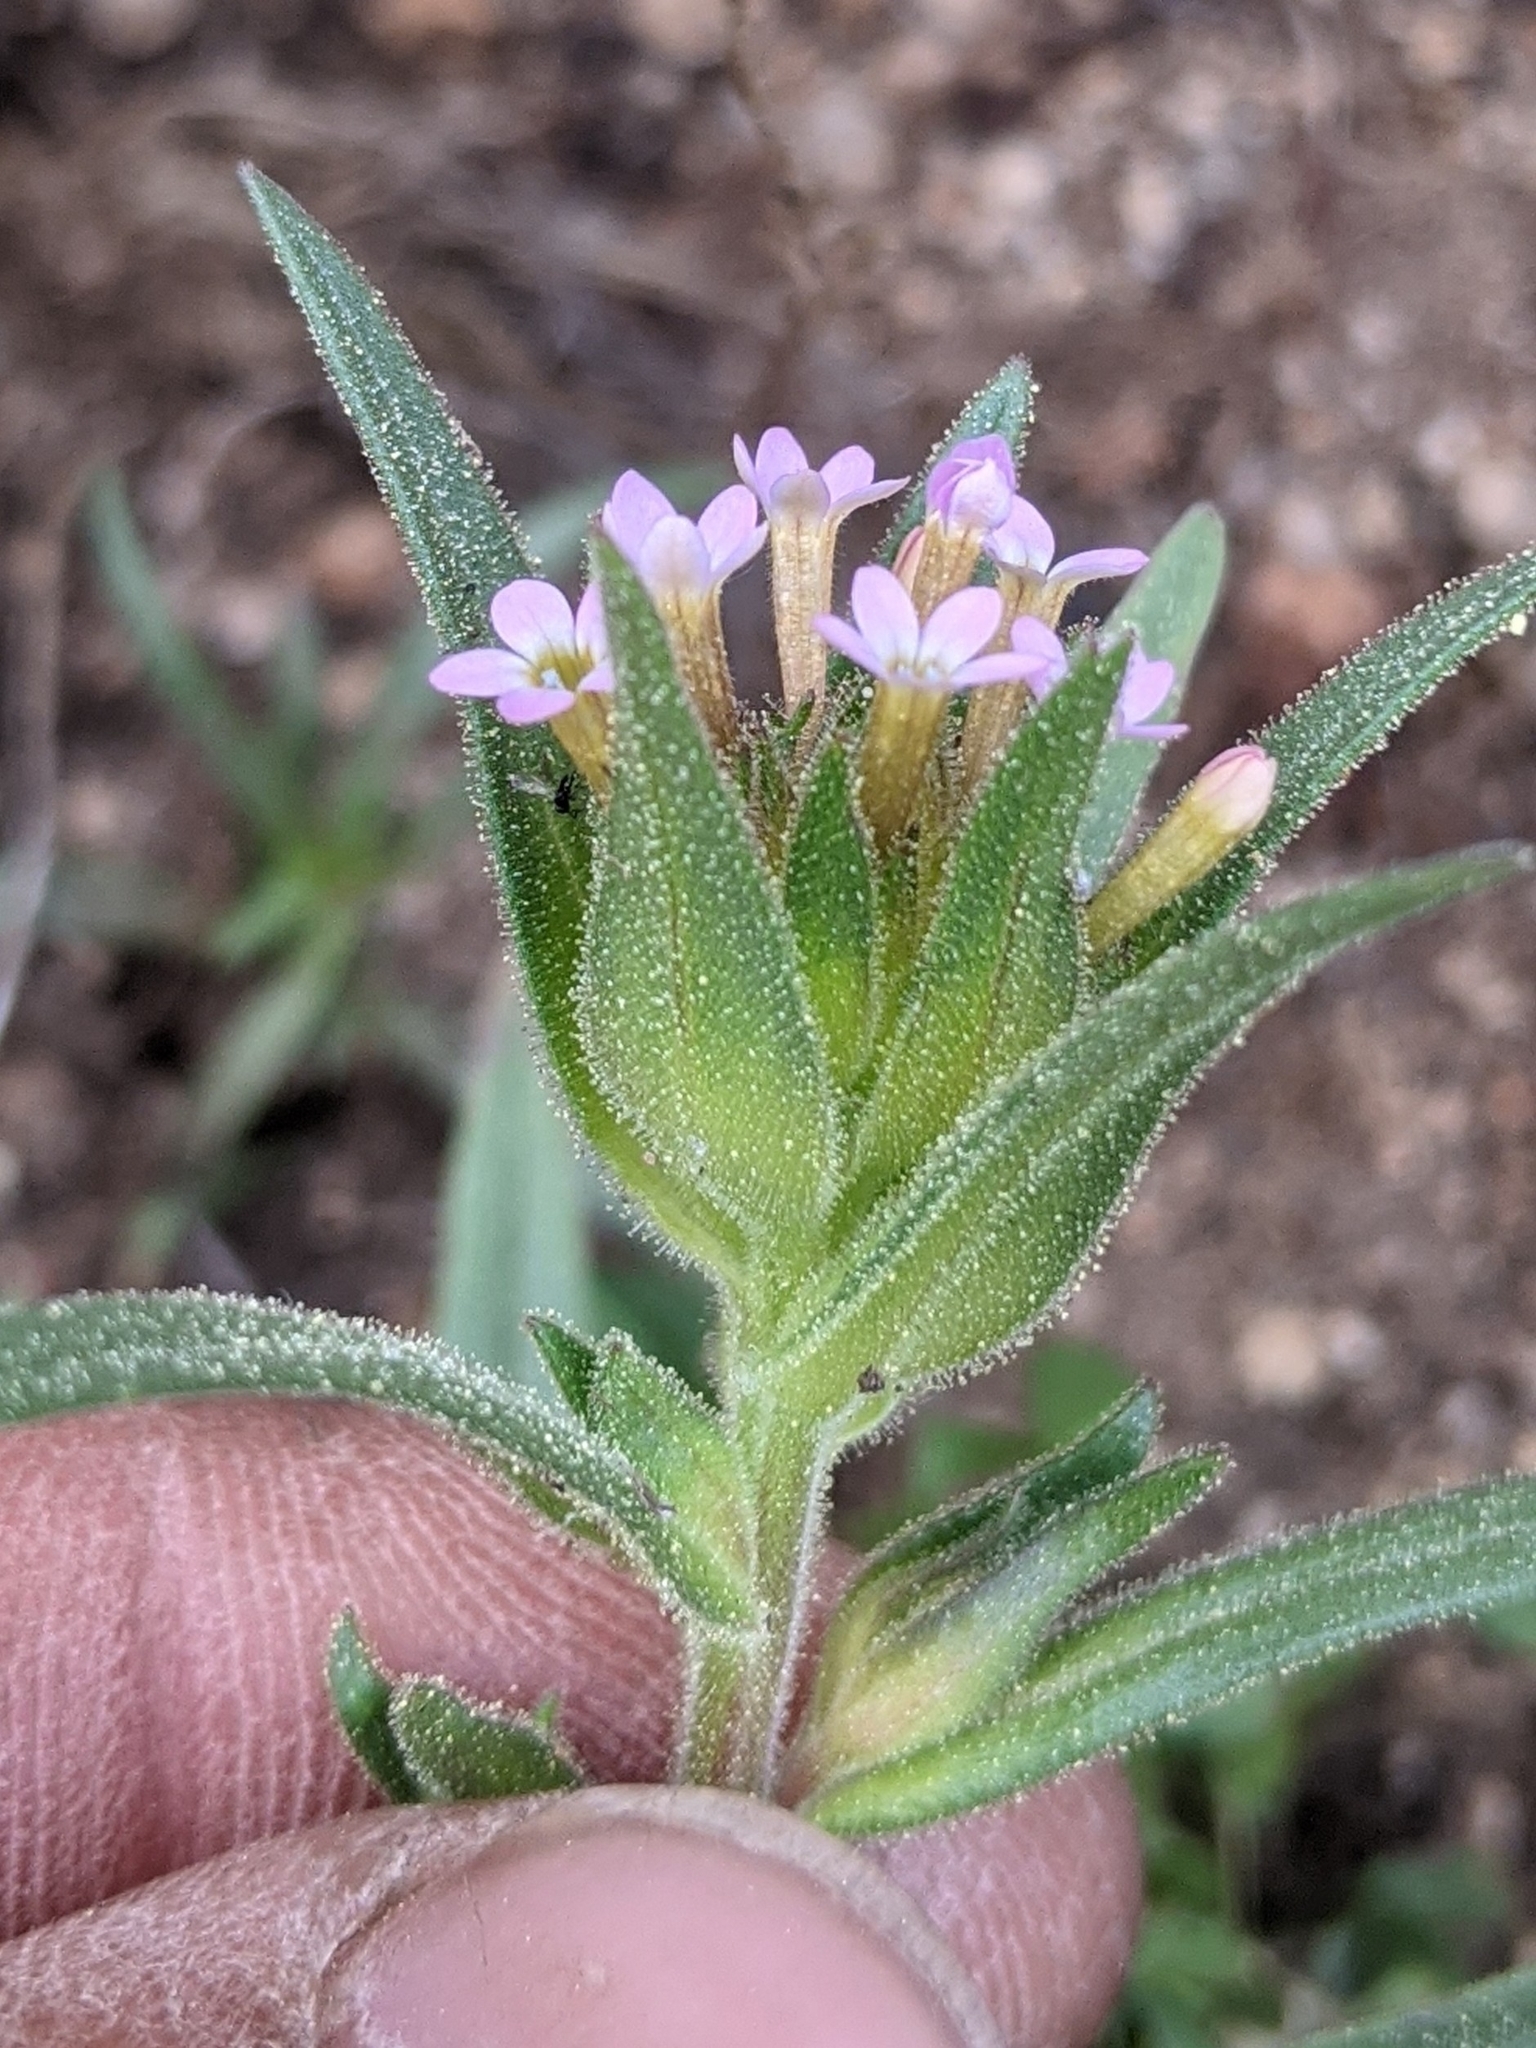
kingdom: Plantae
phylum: Tracheophyta
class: Magnoliopsida
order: Ericales
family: Polemoniaceae
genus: Collomia
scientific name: Collomia linearis
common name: Tiny trumpet
